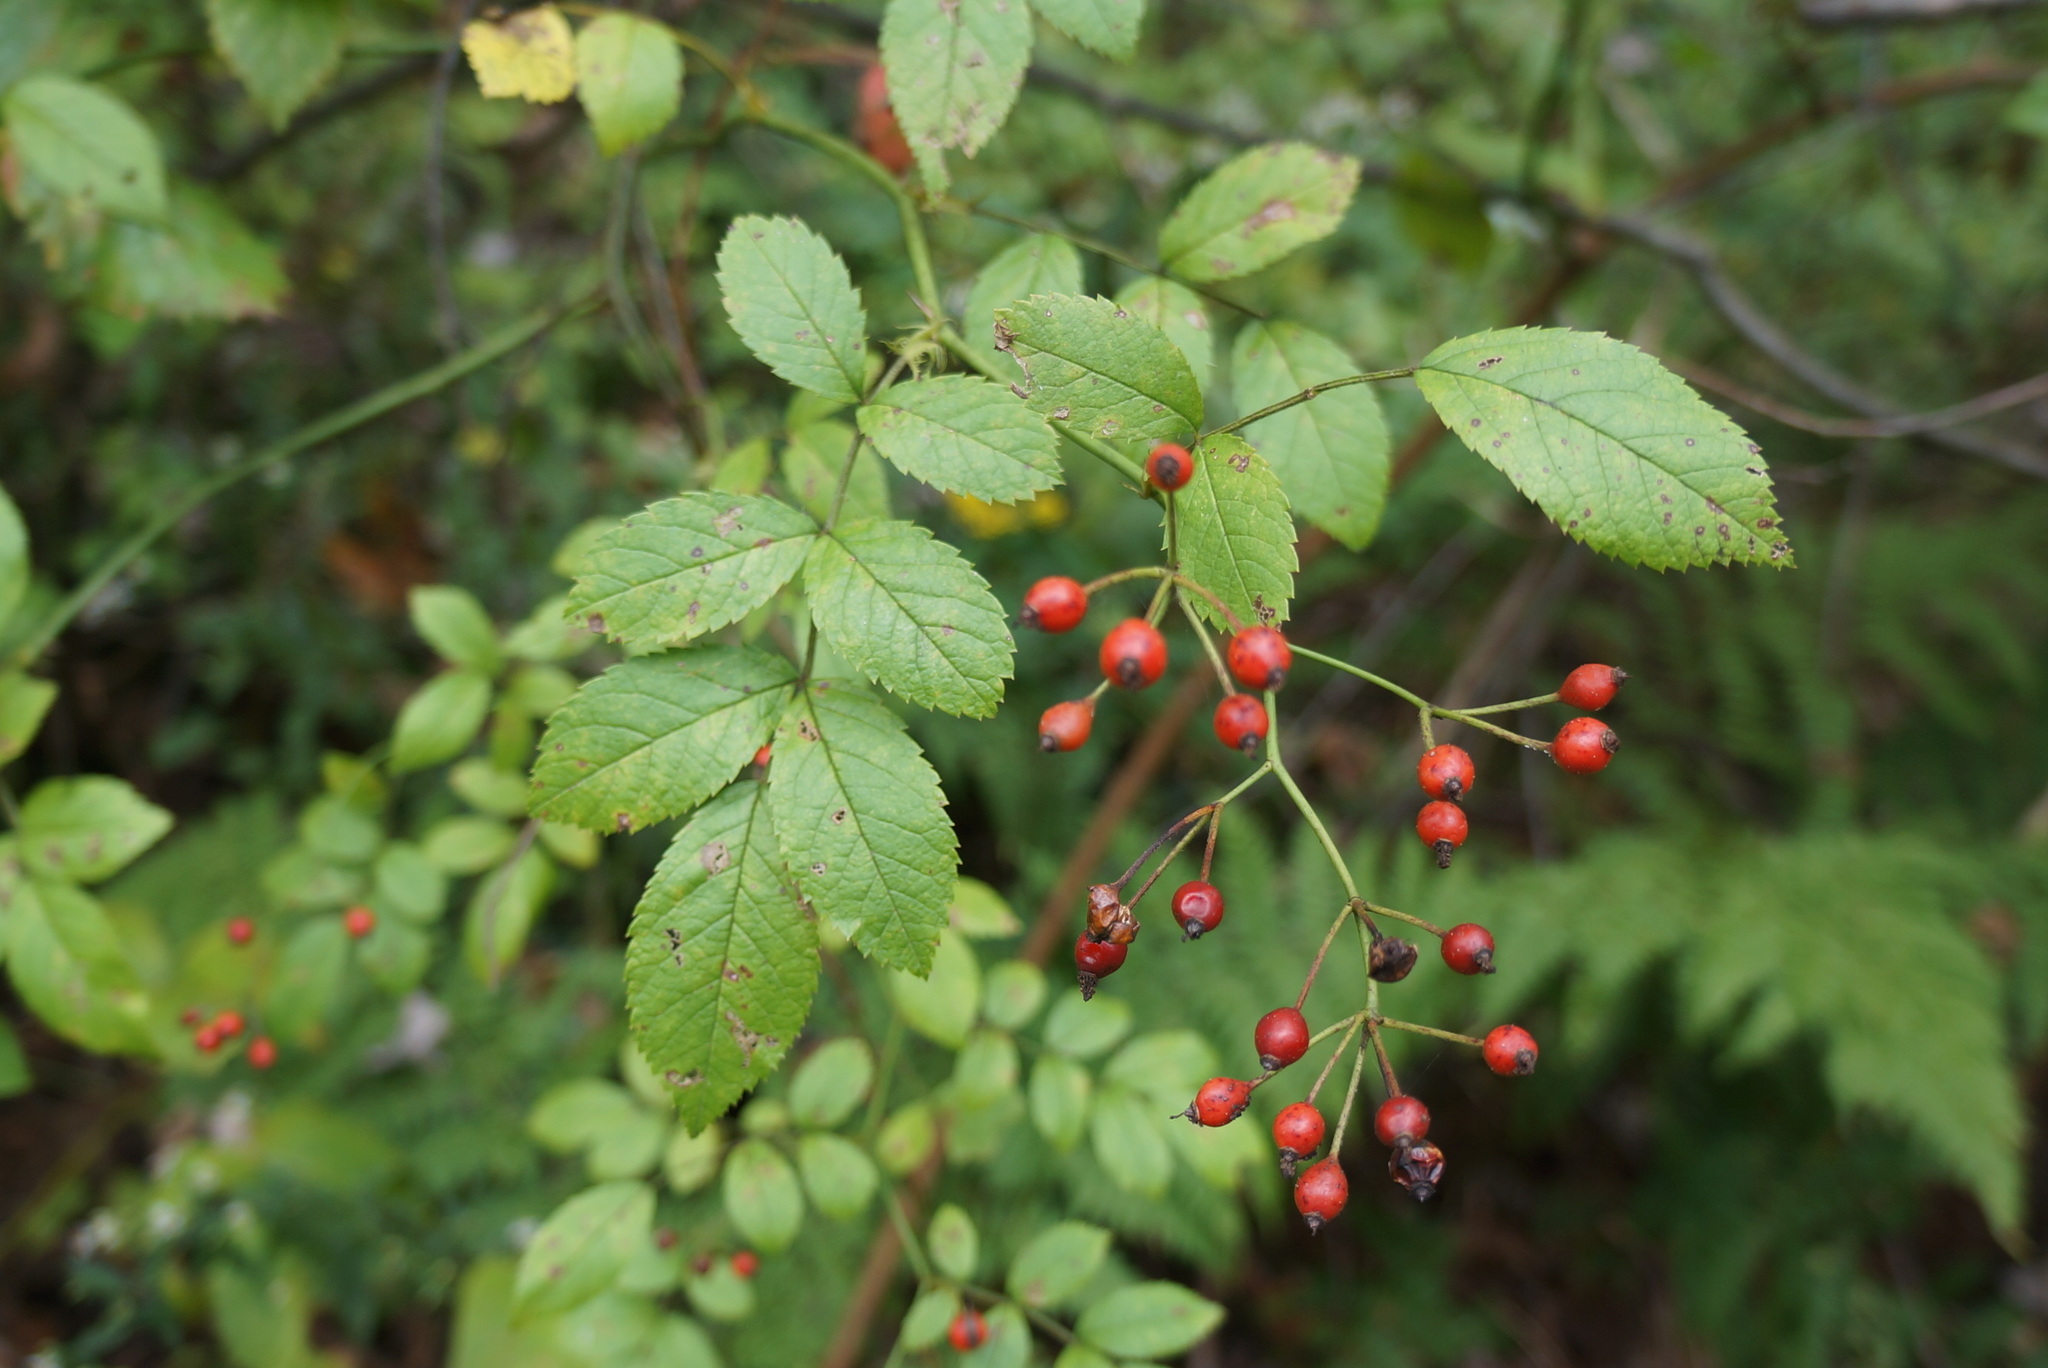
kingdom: Plantae
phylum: Tracheophyta
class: Magnoliopsida
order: Rosales
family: Rosaceae
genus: Rosa
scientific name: Rosa multiflora
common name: Multiflora rose
